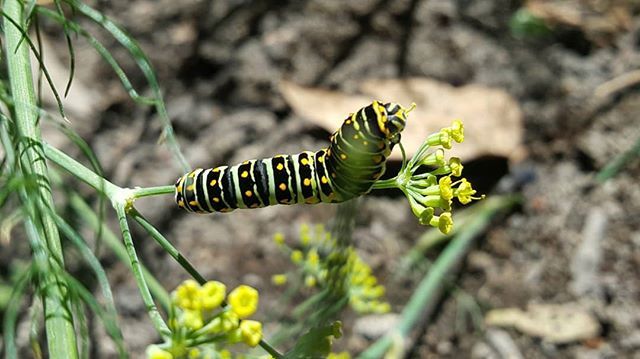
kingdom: Animalia
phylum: Arthropoda
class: Insecta
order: Lepidoptera
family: Papilionidae
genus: Papilio
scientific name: Papilio polyxenes
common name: Black swallowtail
